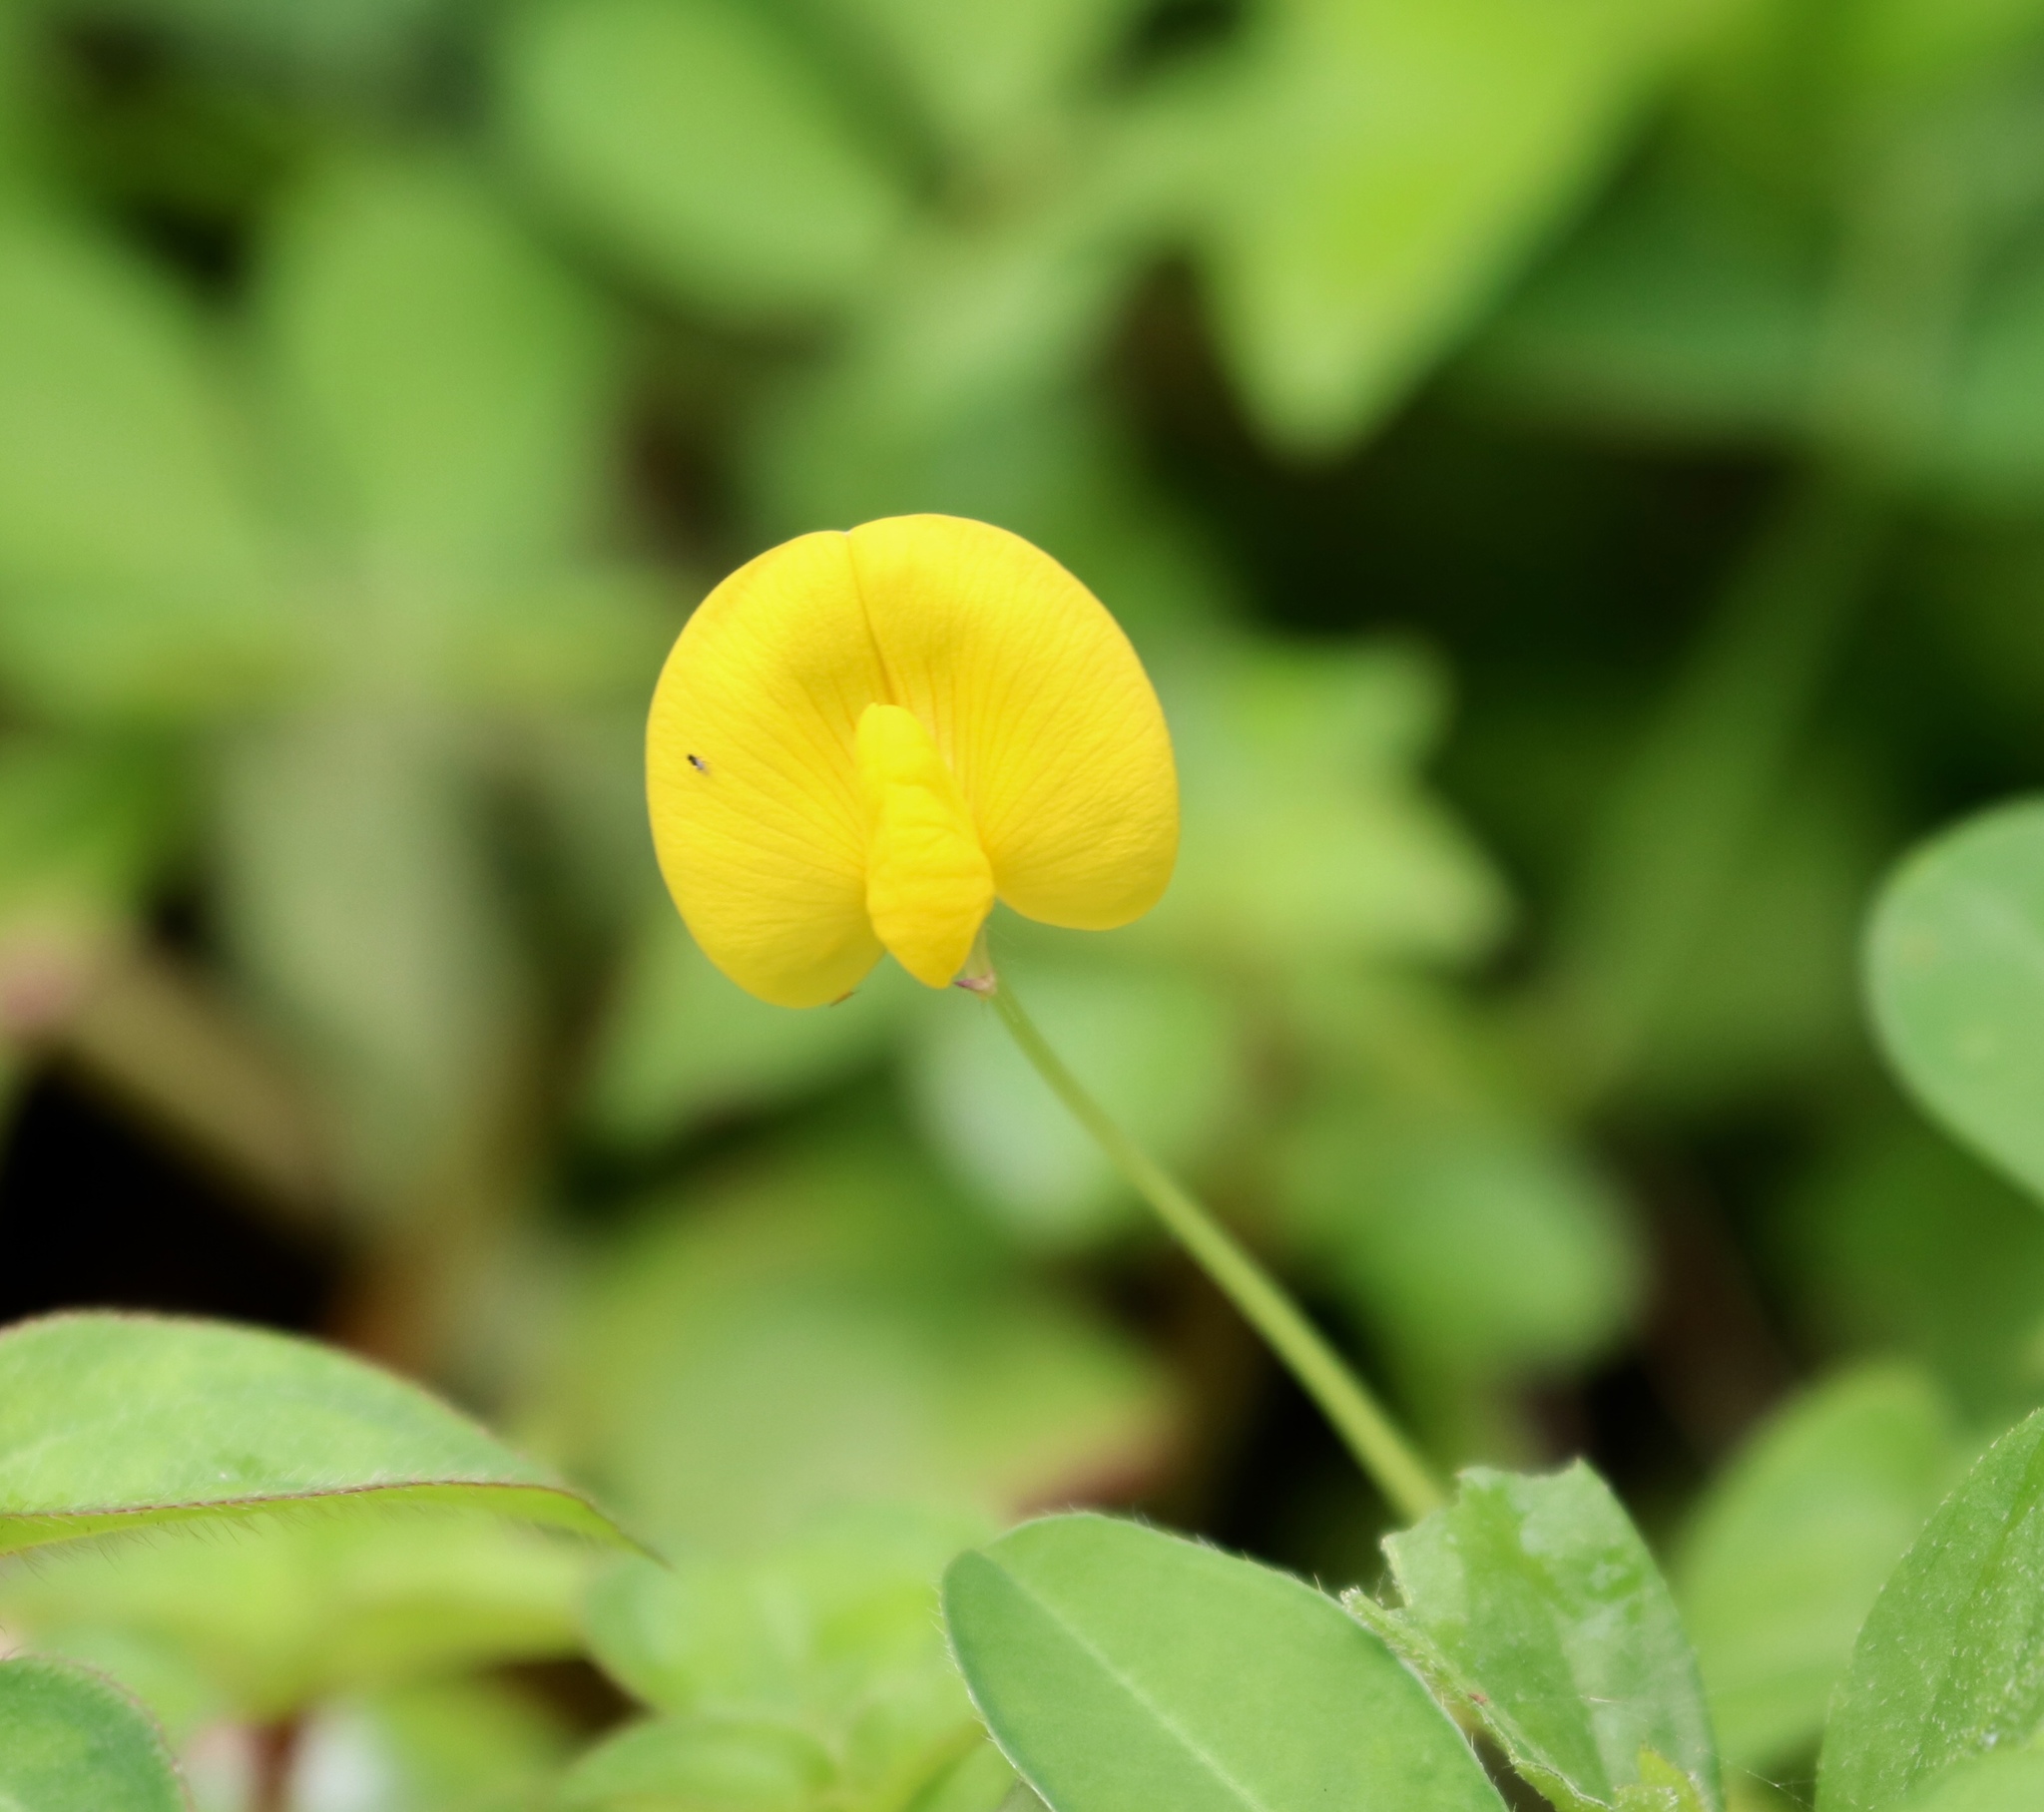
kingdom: Plantae
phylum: Tracheophyta
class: Magnoliopsida
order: Fabales
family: Fabaceae
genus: Arachis
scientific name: Arachis pintoi
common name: Pinto peanut
